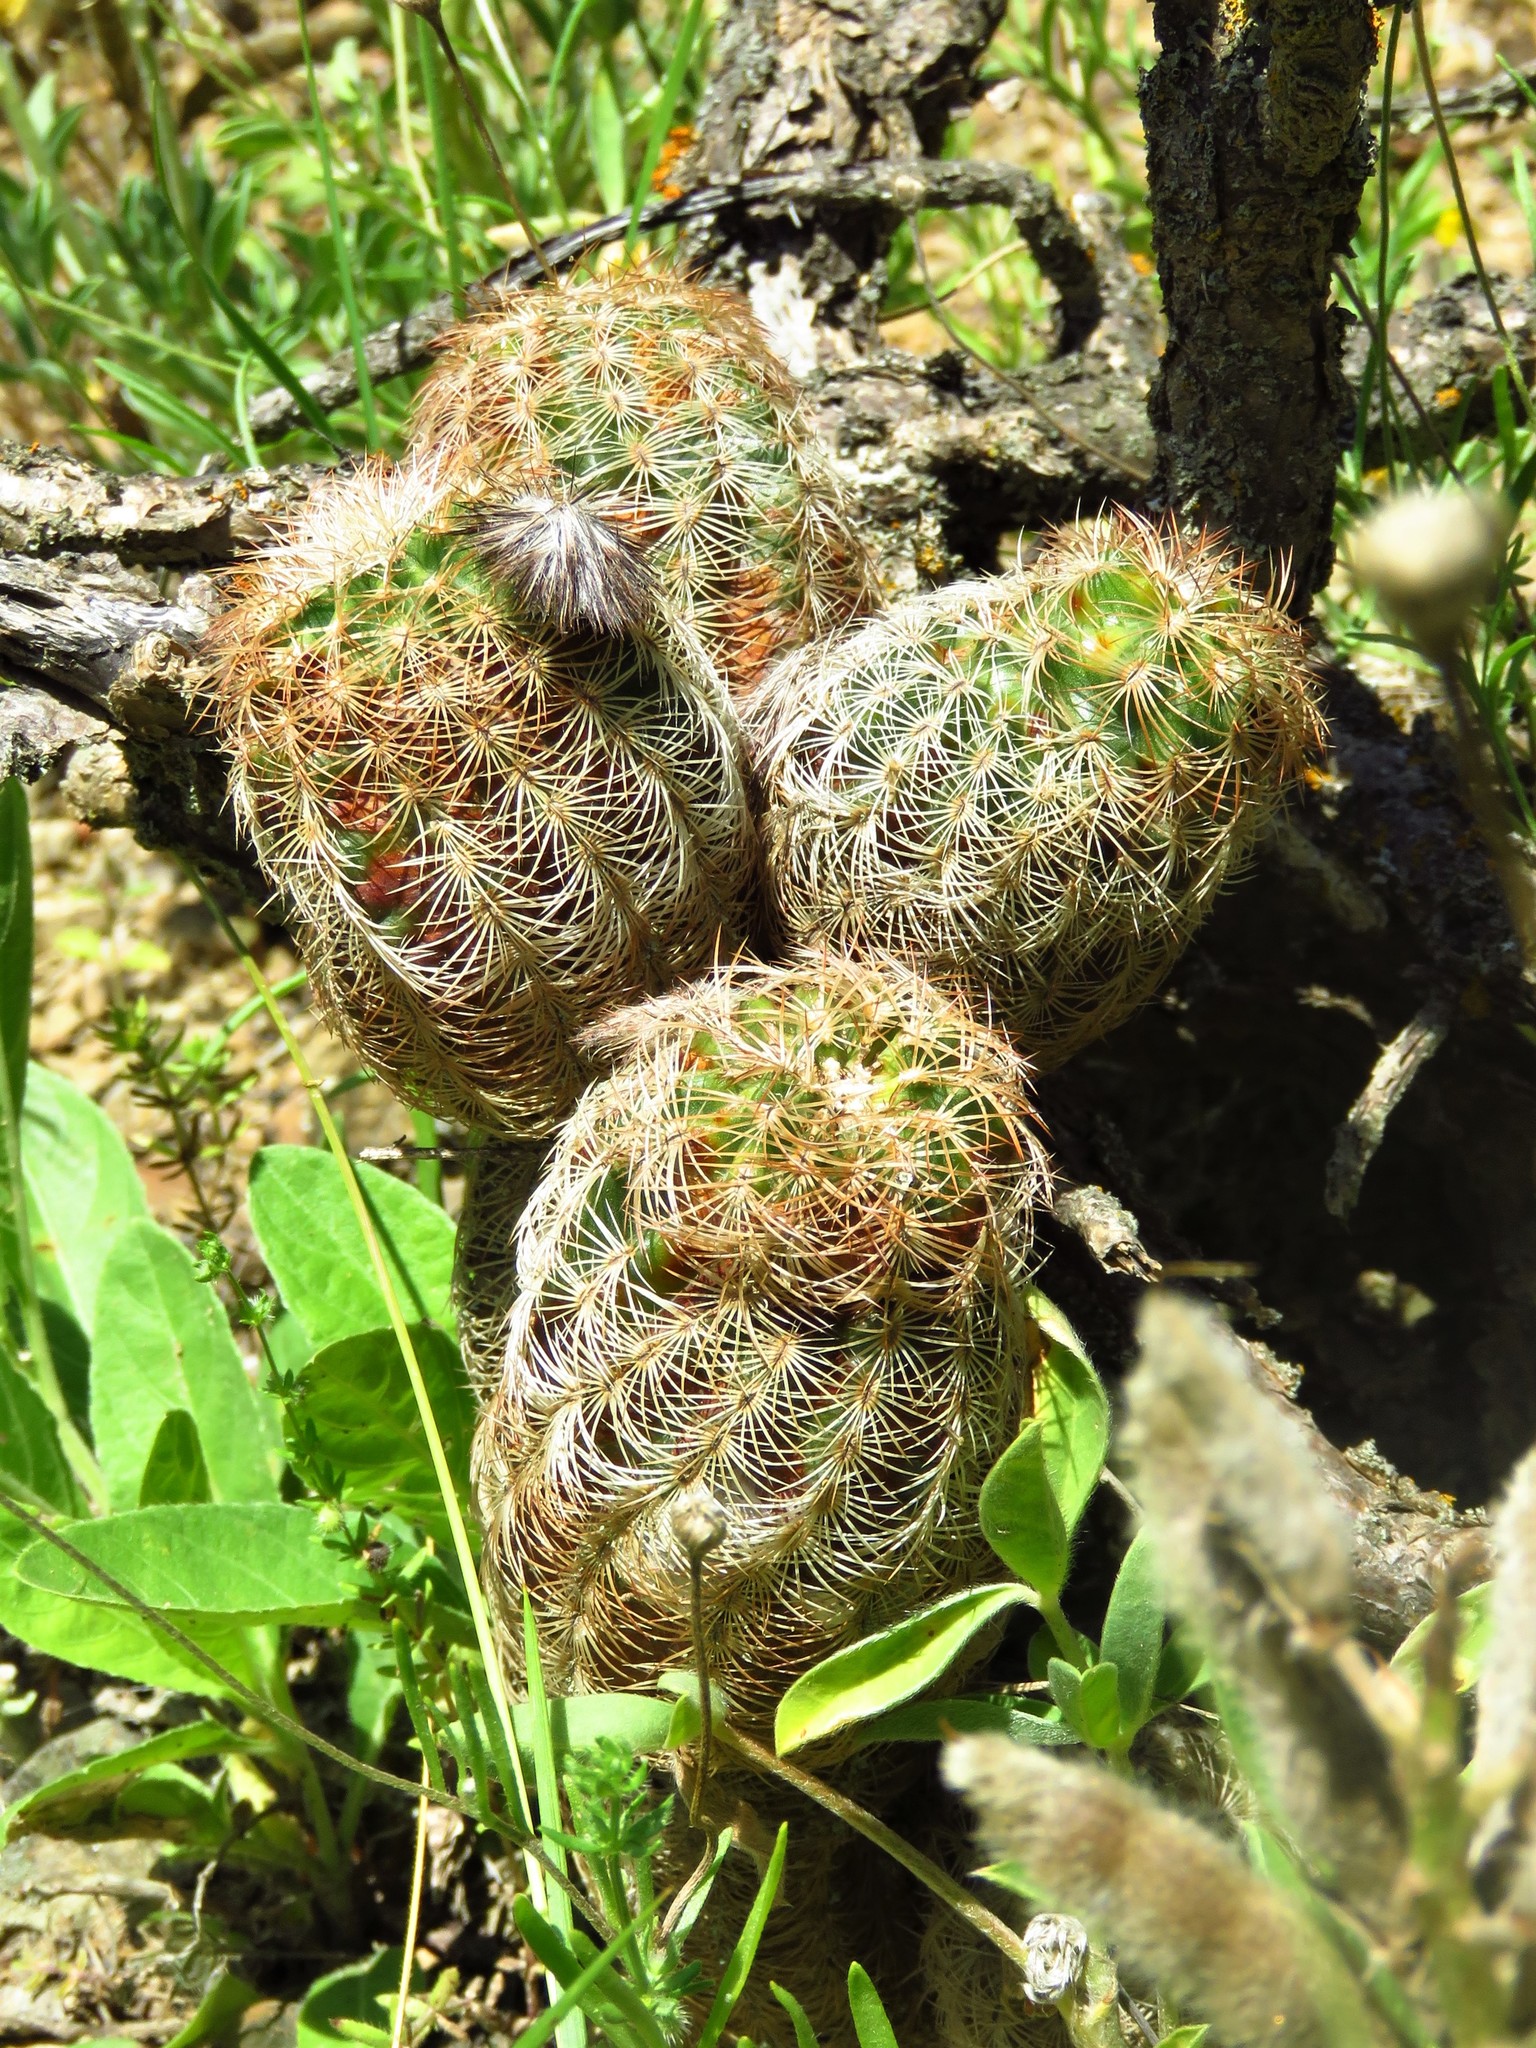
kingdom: Plantae
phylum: Tracheophyta
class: Magnoliopsida
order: Caryophyllales
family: Cactaceae
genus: Echinocereus
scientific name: Echinocereus reichenbachii
